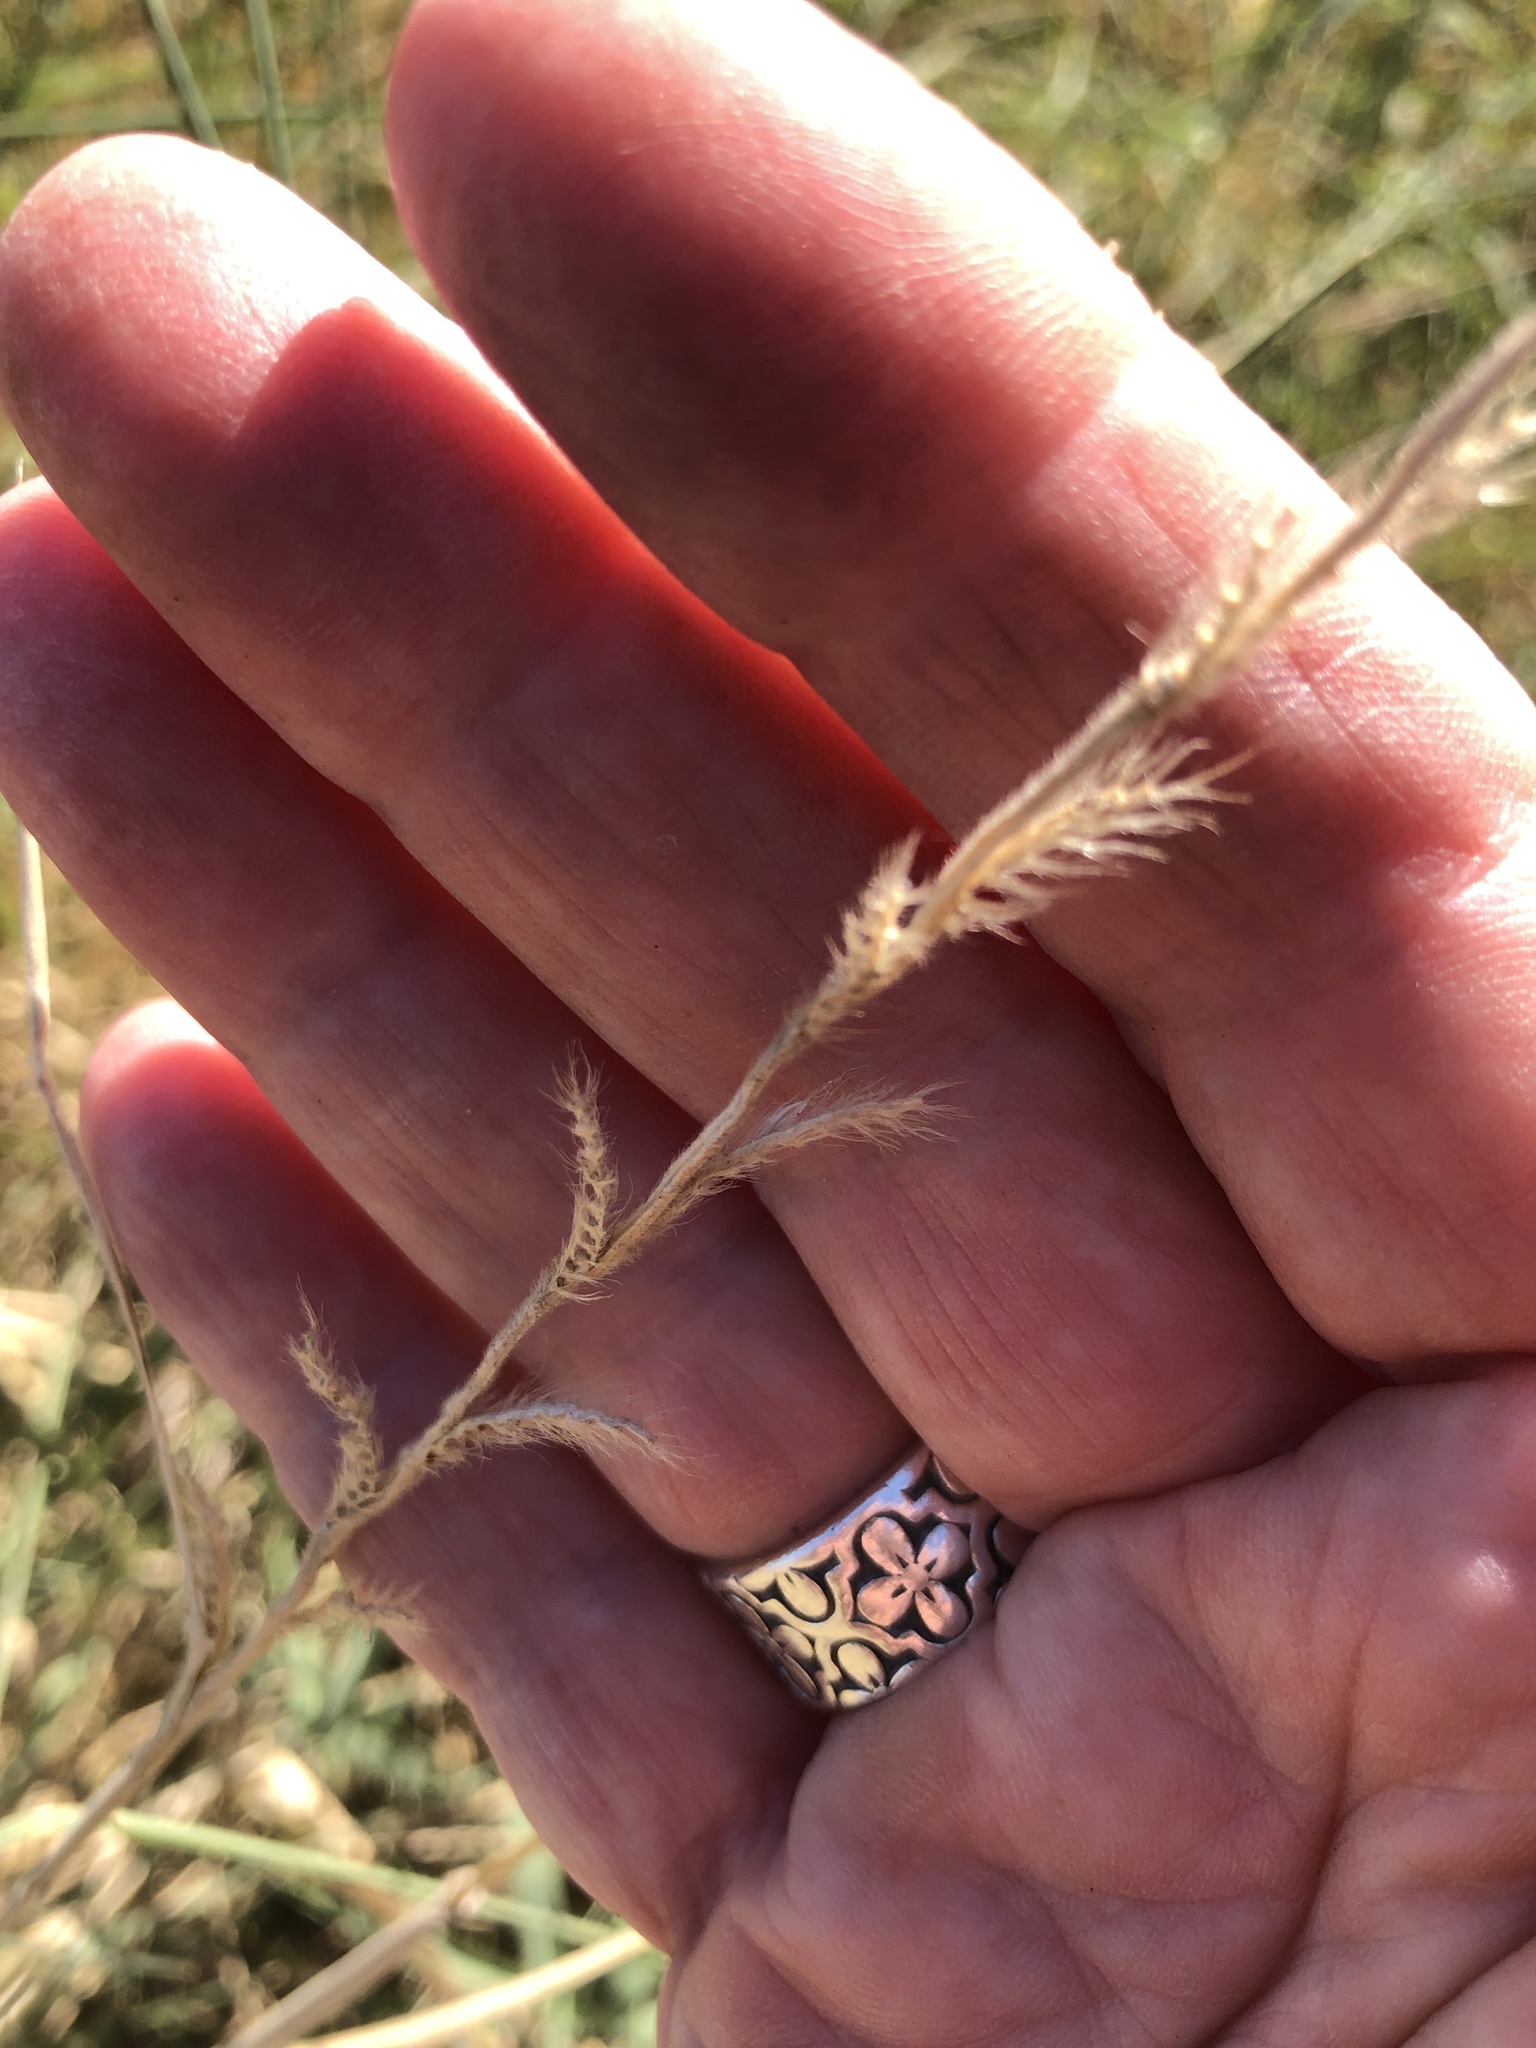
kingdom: Plantae
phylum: Tracheophyta
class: Liliopsida
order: Poales
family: Poaceae
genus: Eriochloa
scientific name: Eriochloa sericea
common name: Texas cup grass
